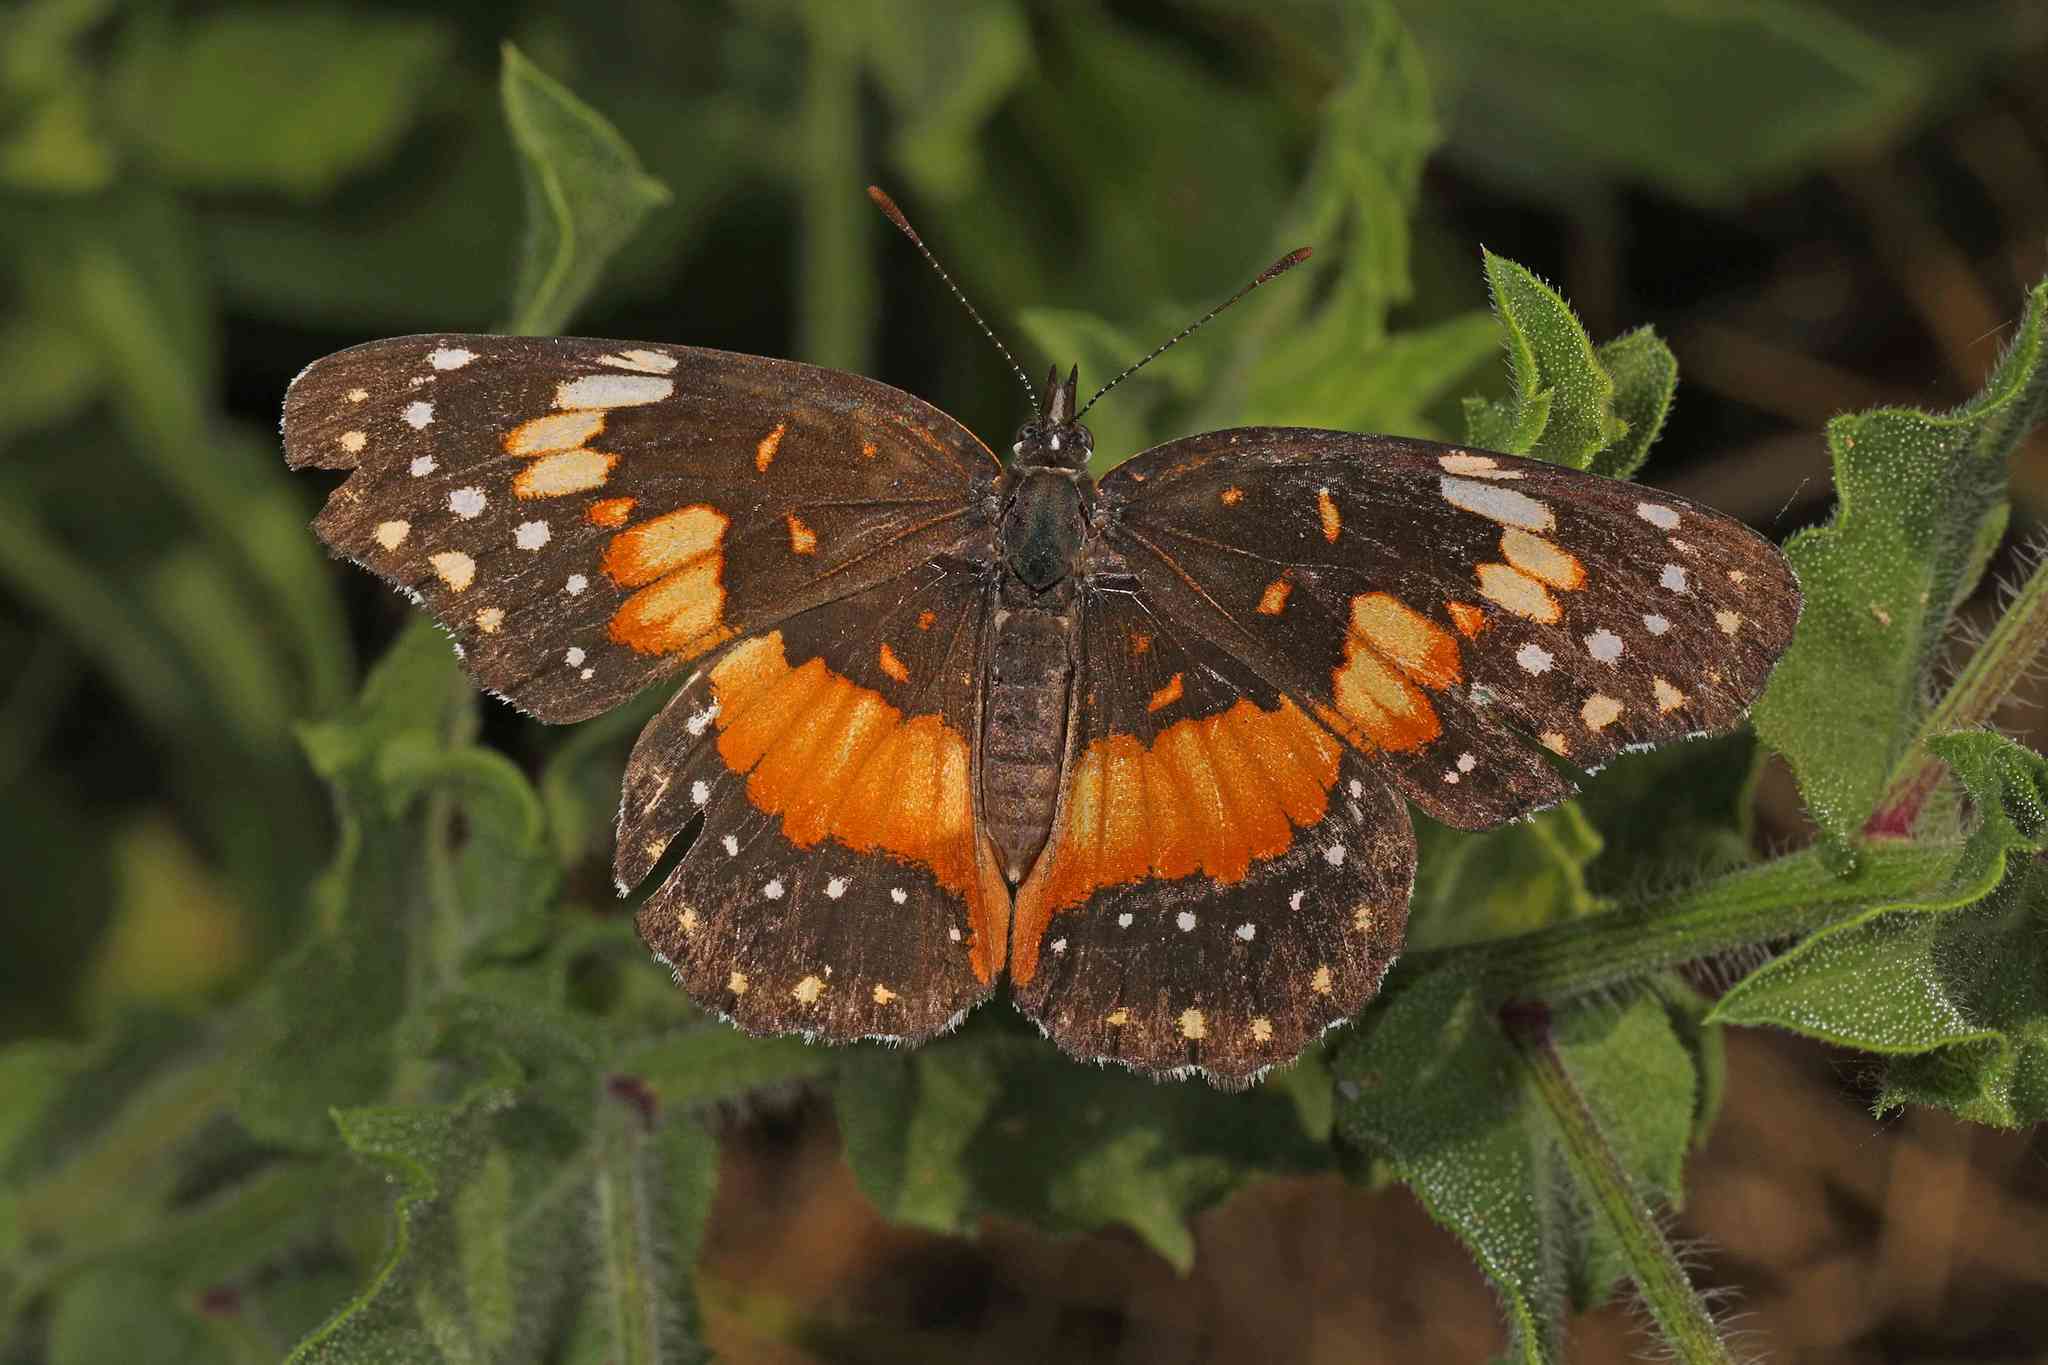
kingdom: Animalia
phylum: Arthropoda
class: Insecta
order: Lepidoptera
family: Nymphalidae
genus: Chlosyne
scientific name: Chlosyne lacinia
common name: Bordered patch
